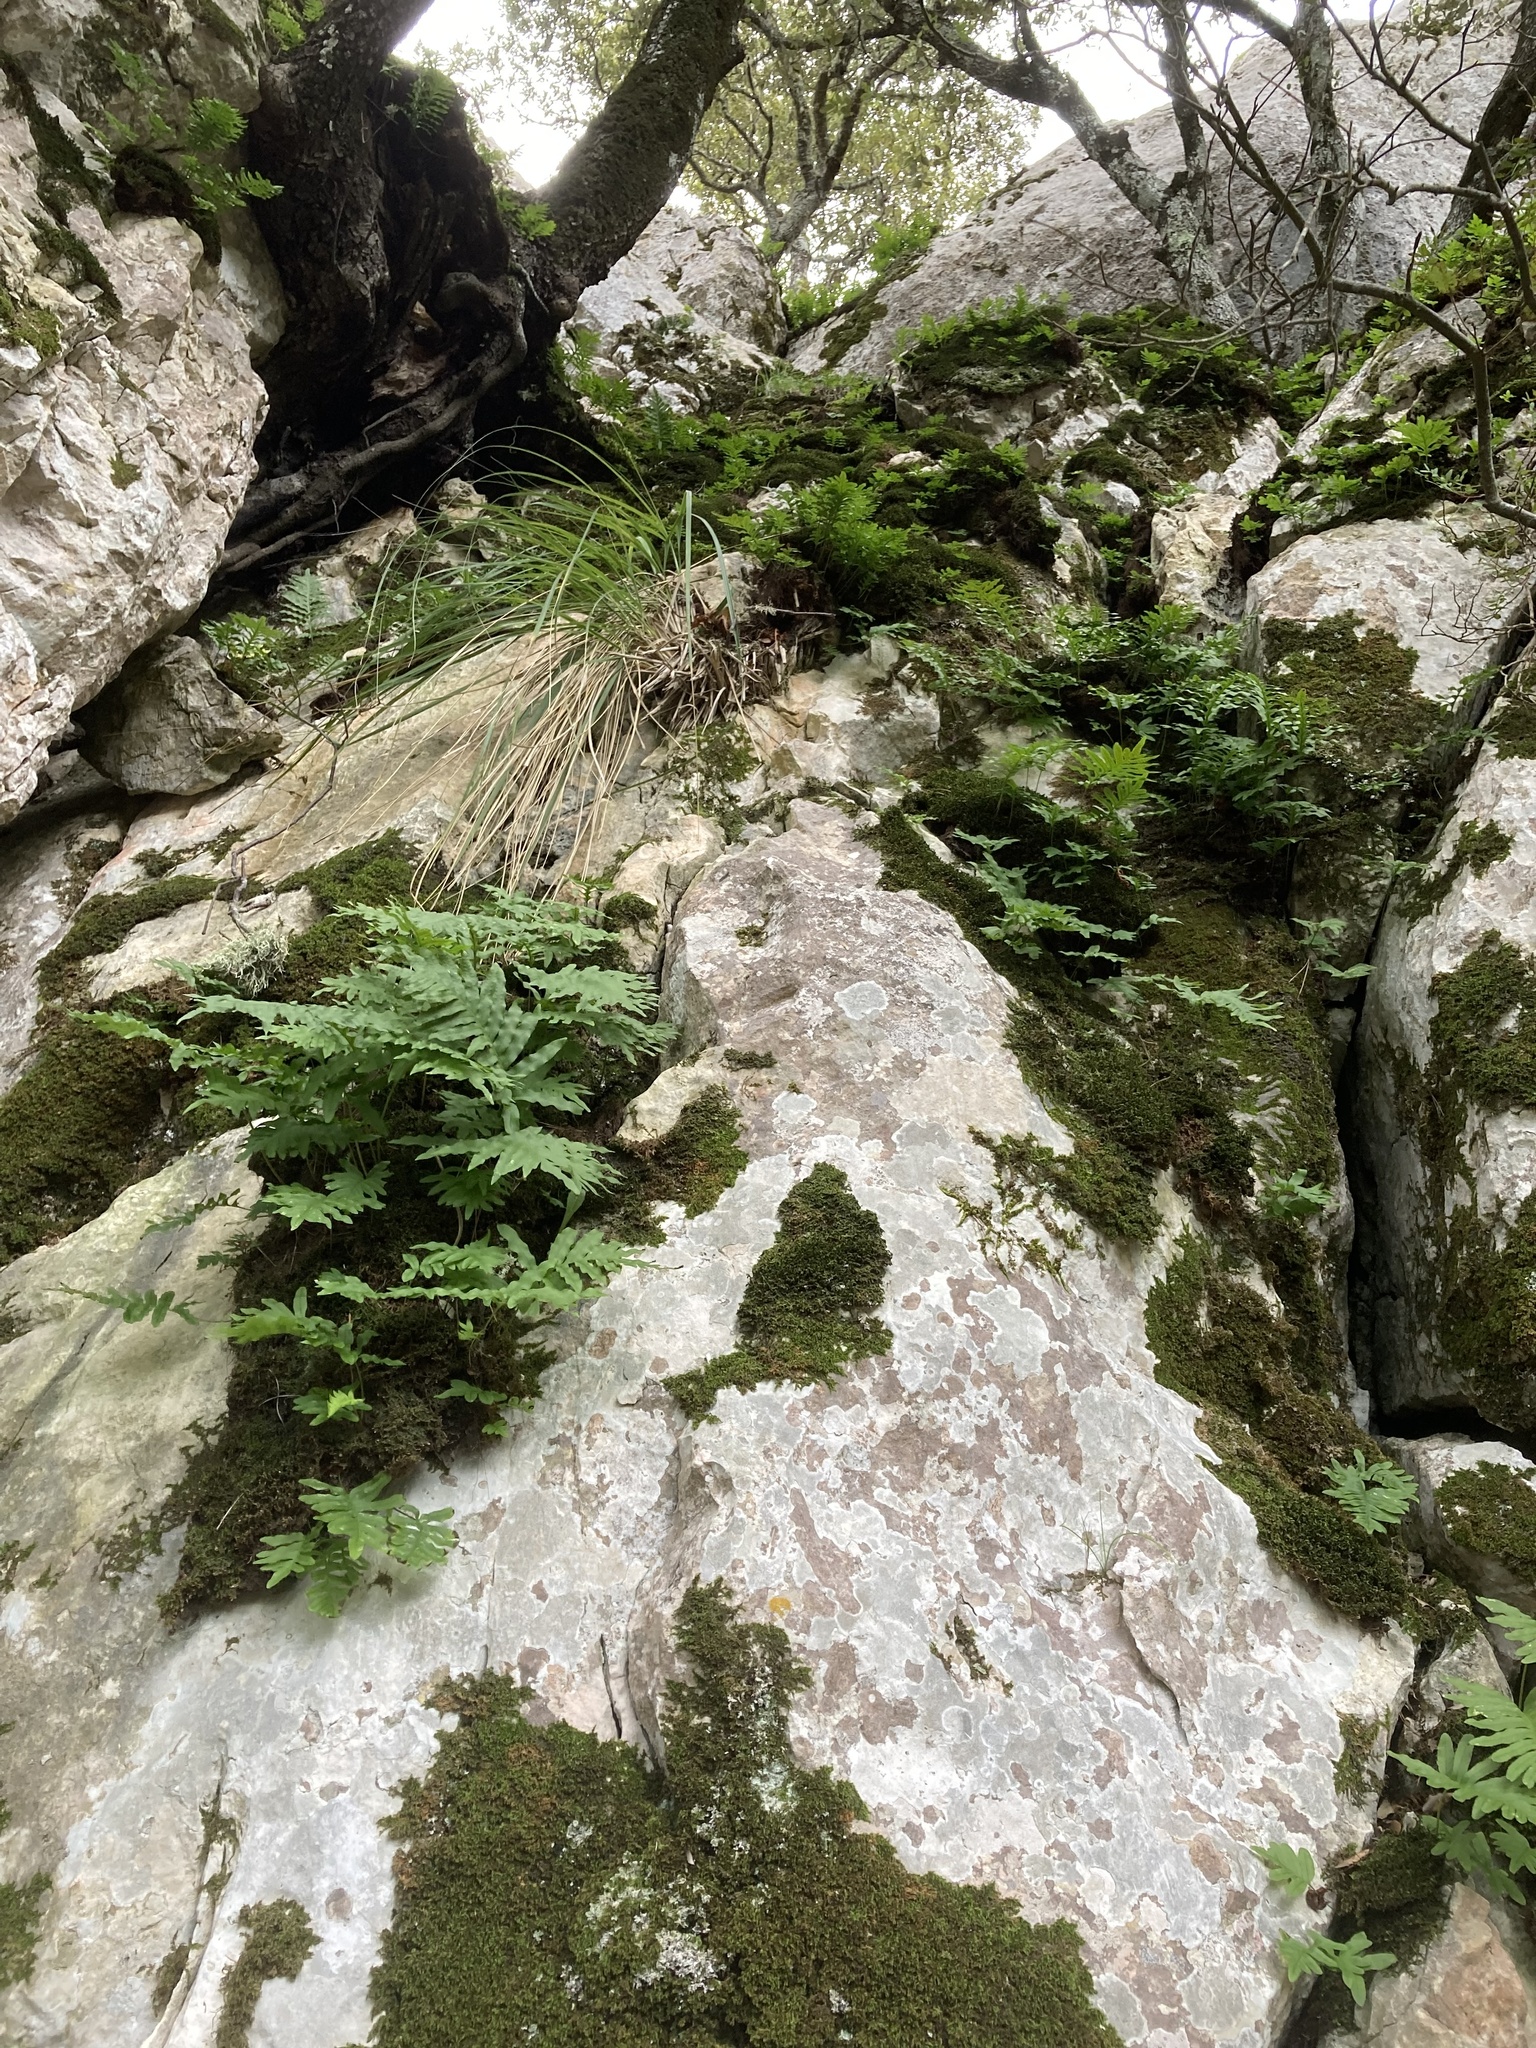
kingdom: Plantae
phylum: Tracheophyta
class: Polypodiopsida
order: Polypodiales
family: Polypodiaceae
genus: Polypodium
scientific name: Polypodium cambricum
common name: Southern polypody
